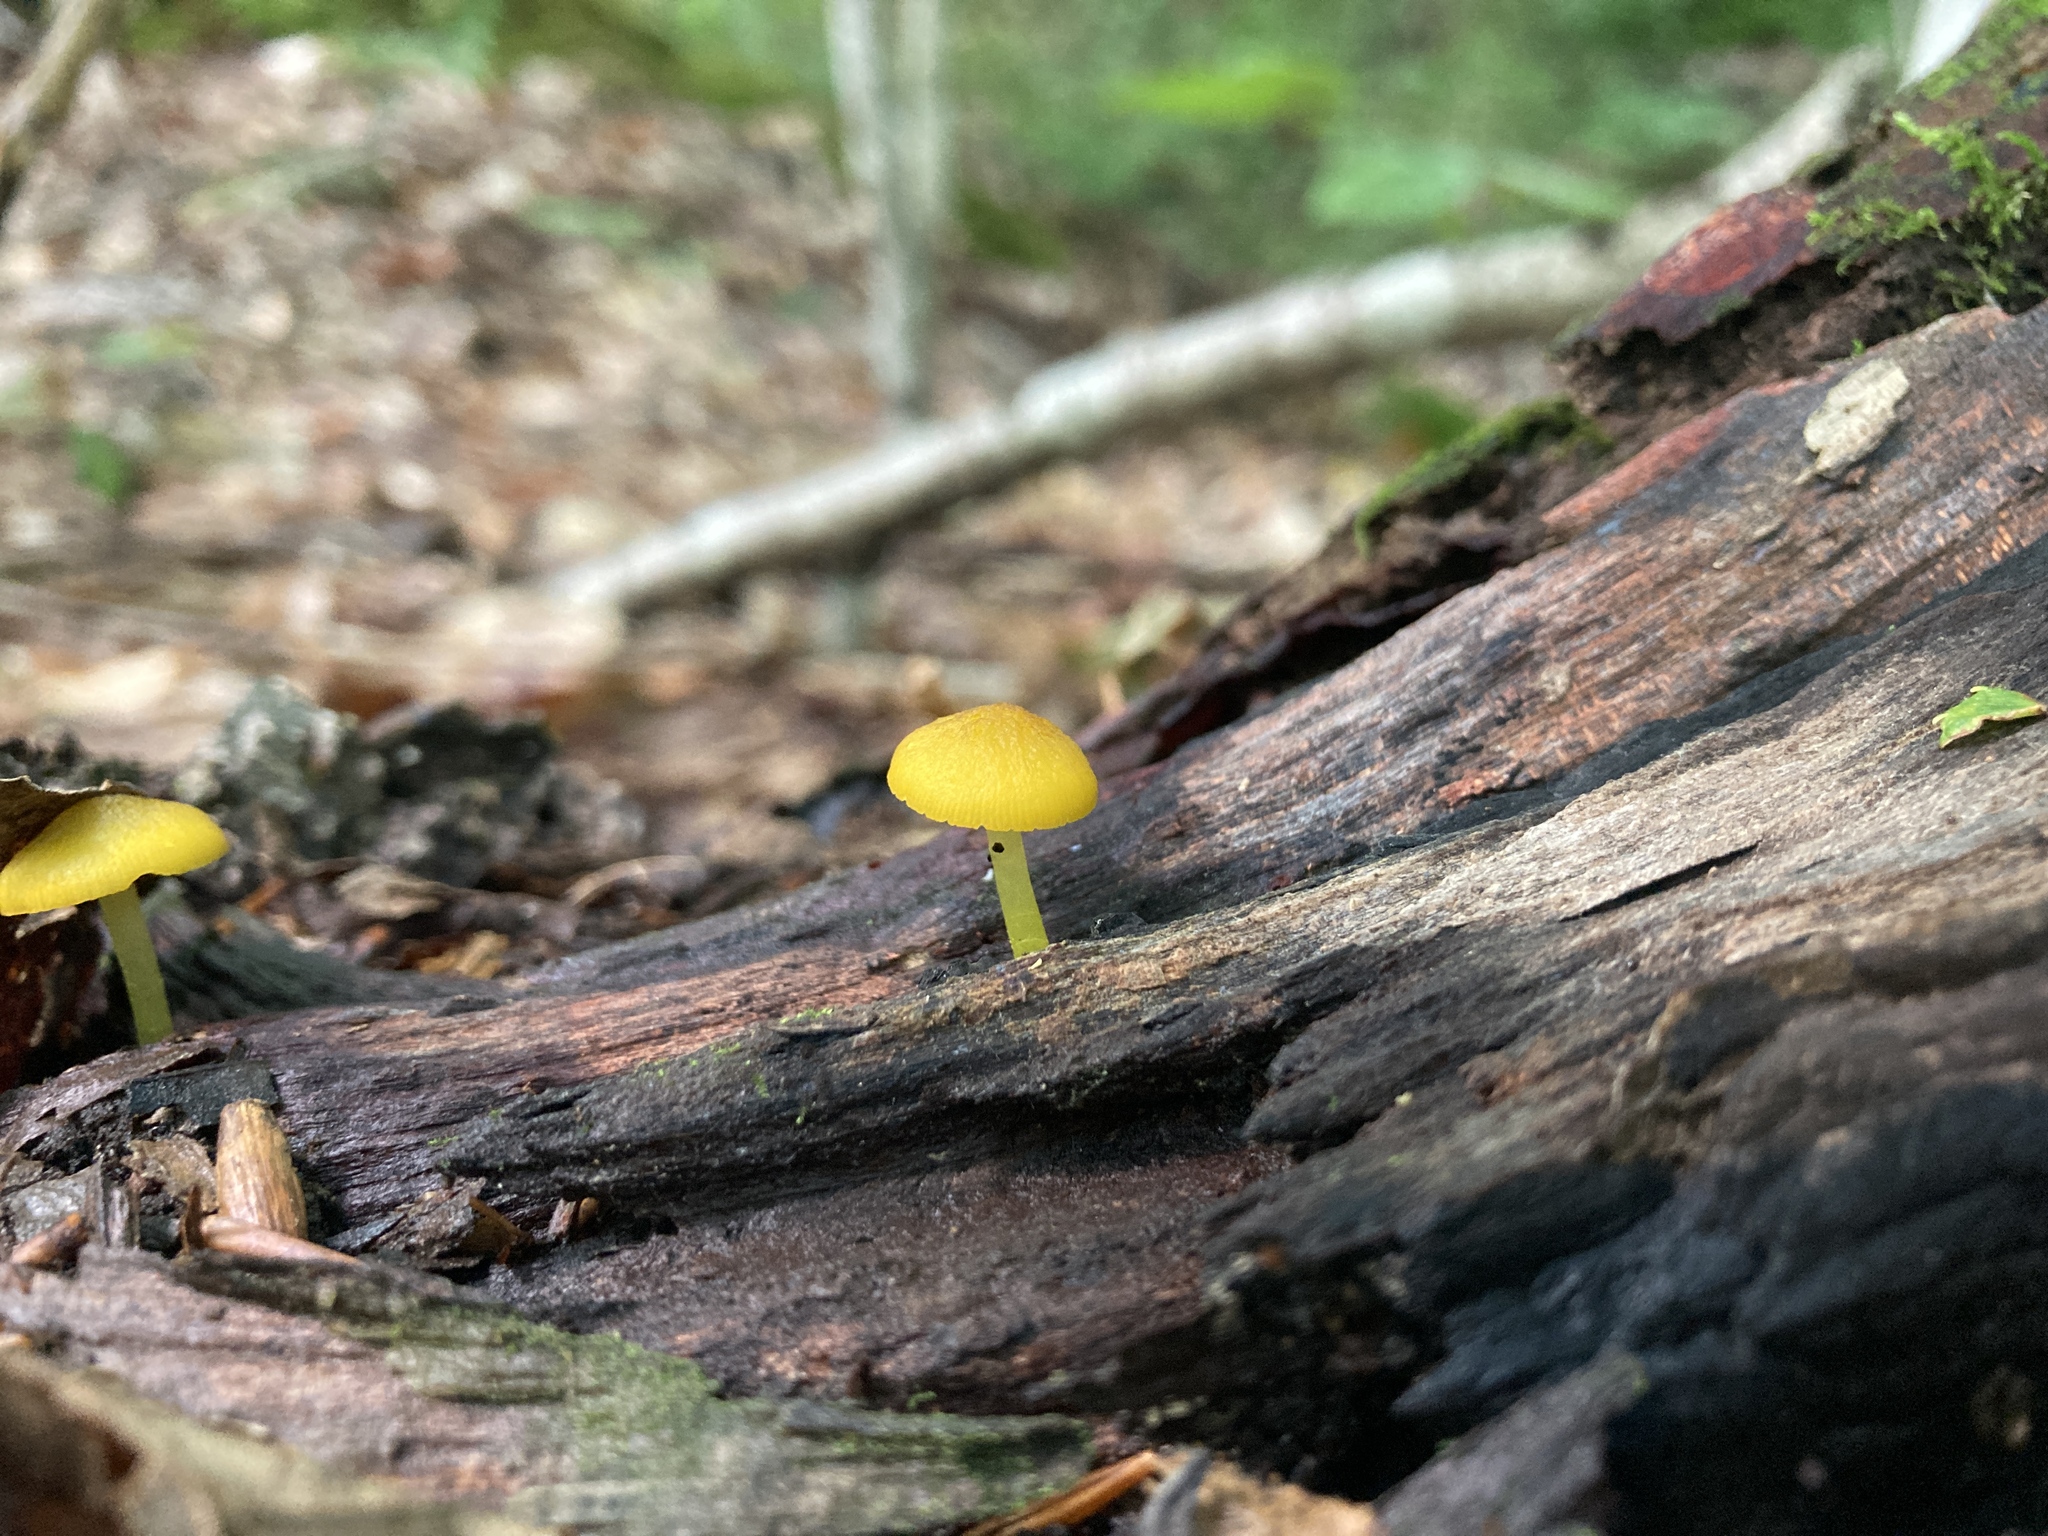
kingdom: Fungi
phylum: Basidiomycota
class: Agaricomycetes
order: Agaricales
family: Pluteaceae
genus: Pluteus
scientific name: Pluteus chrysophlebius
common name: Yellow deer mushroom
